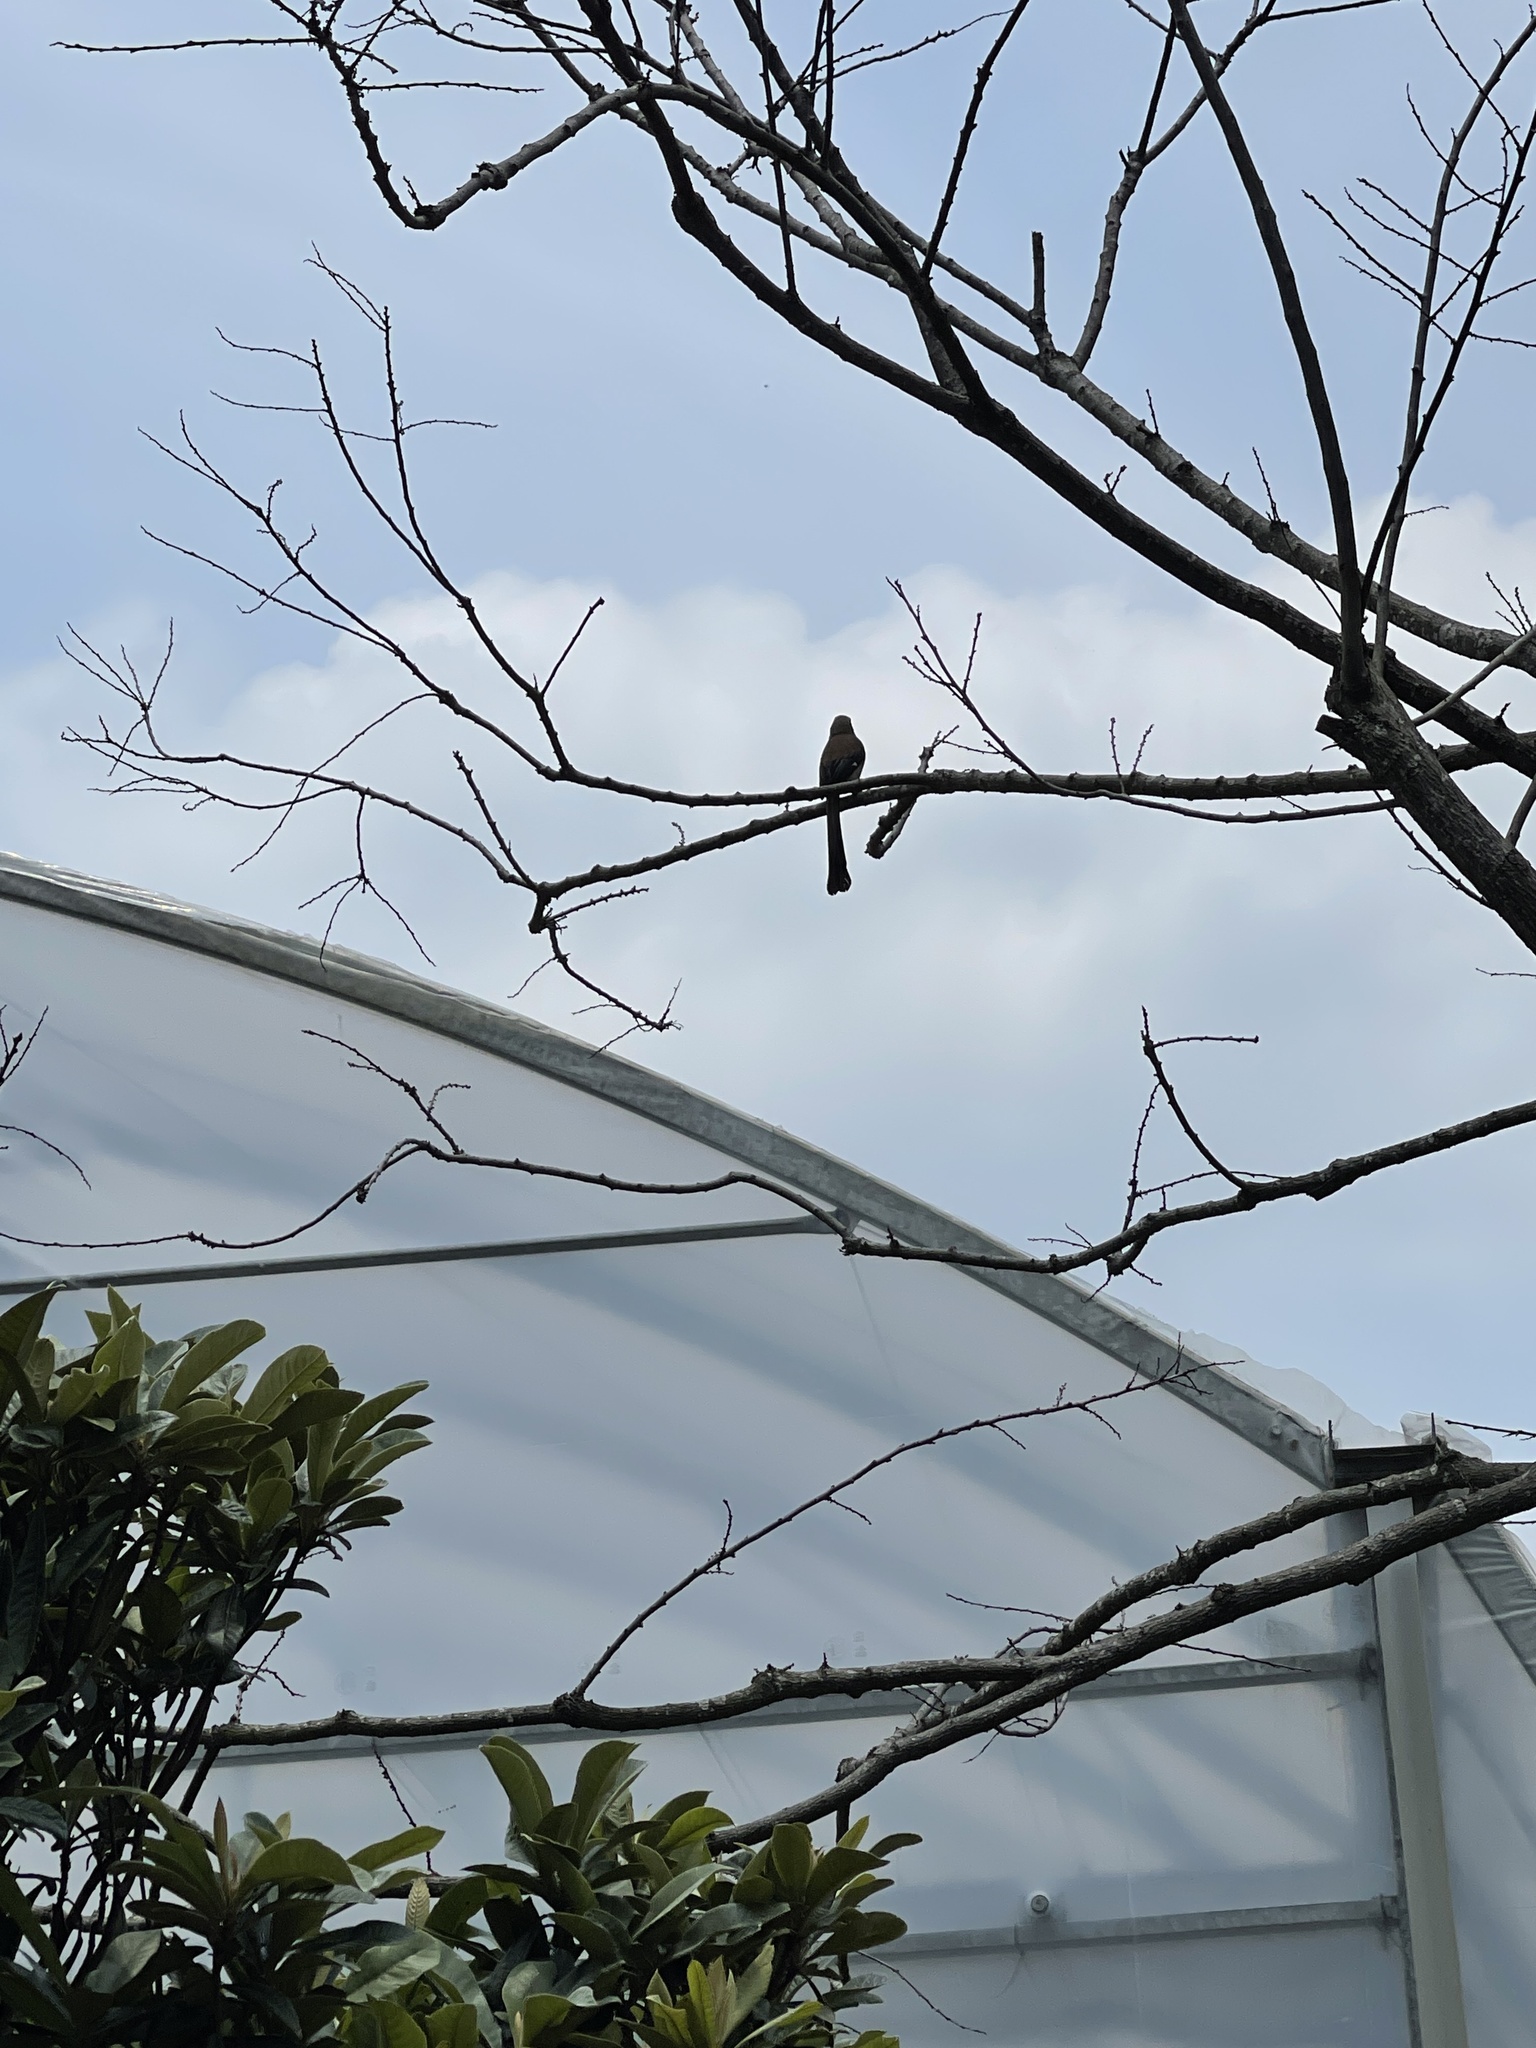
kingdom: Animalia
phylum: Chordata
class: Aves
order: Passeriformes
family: Corvidae
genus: Dendrocitta
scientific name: Dendrocitta formosae
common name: Grey treepie
